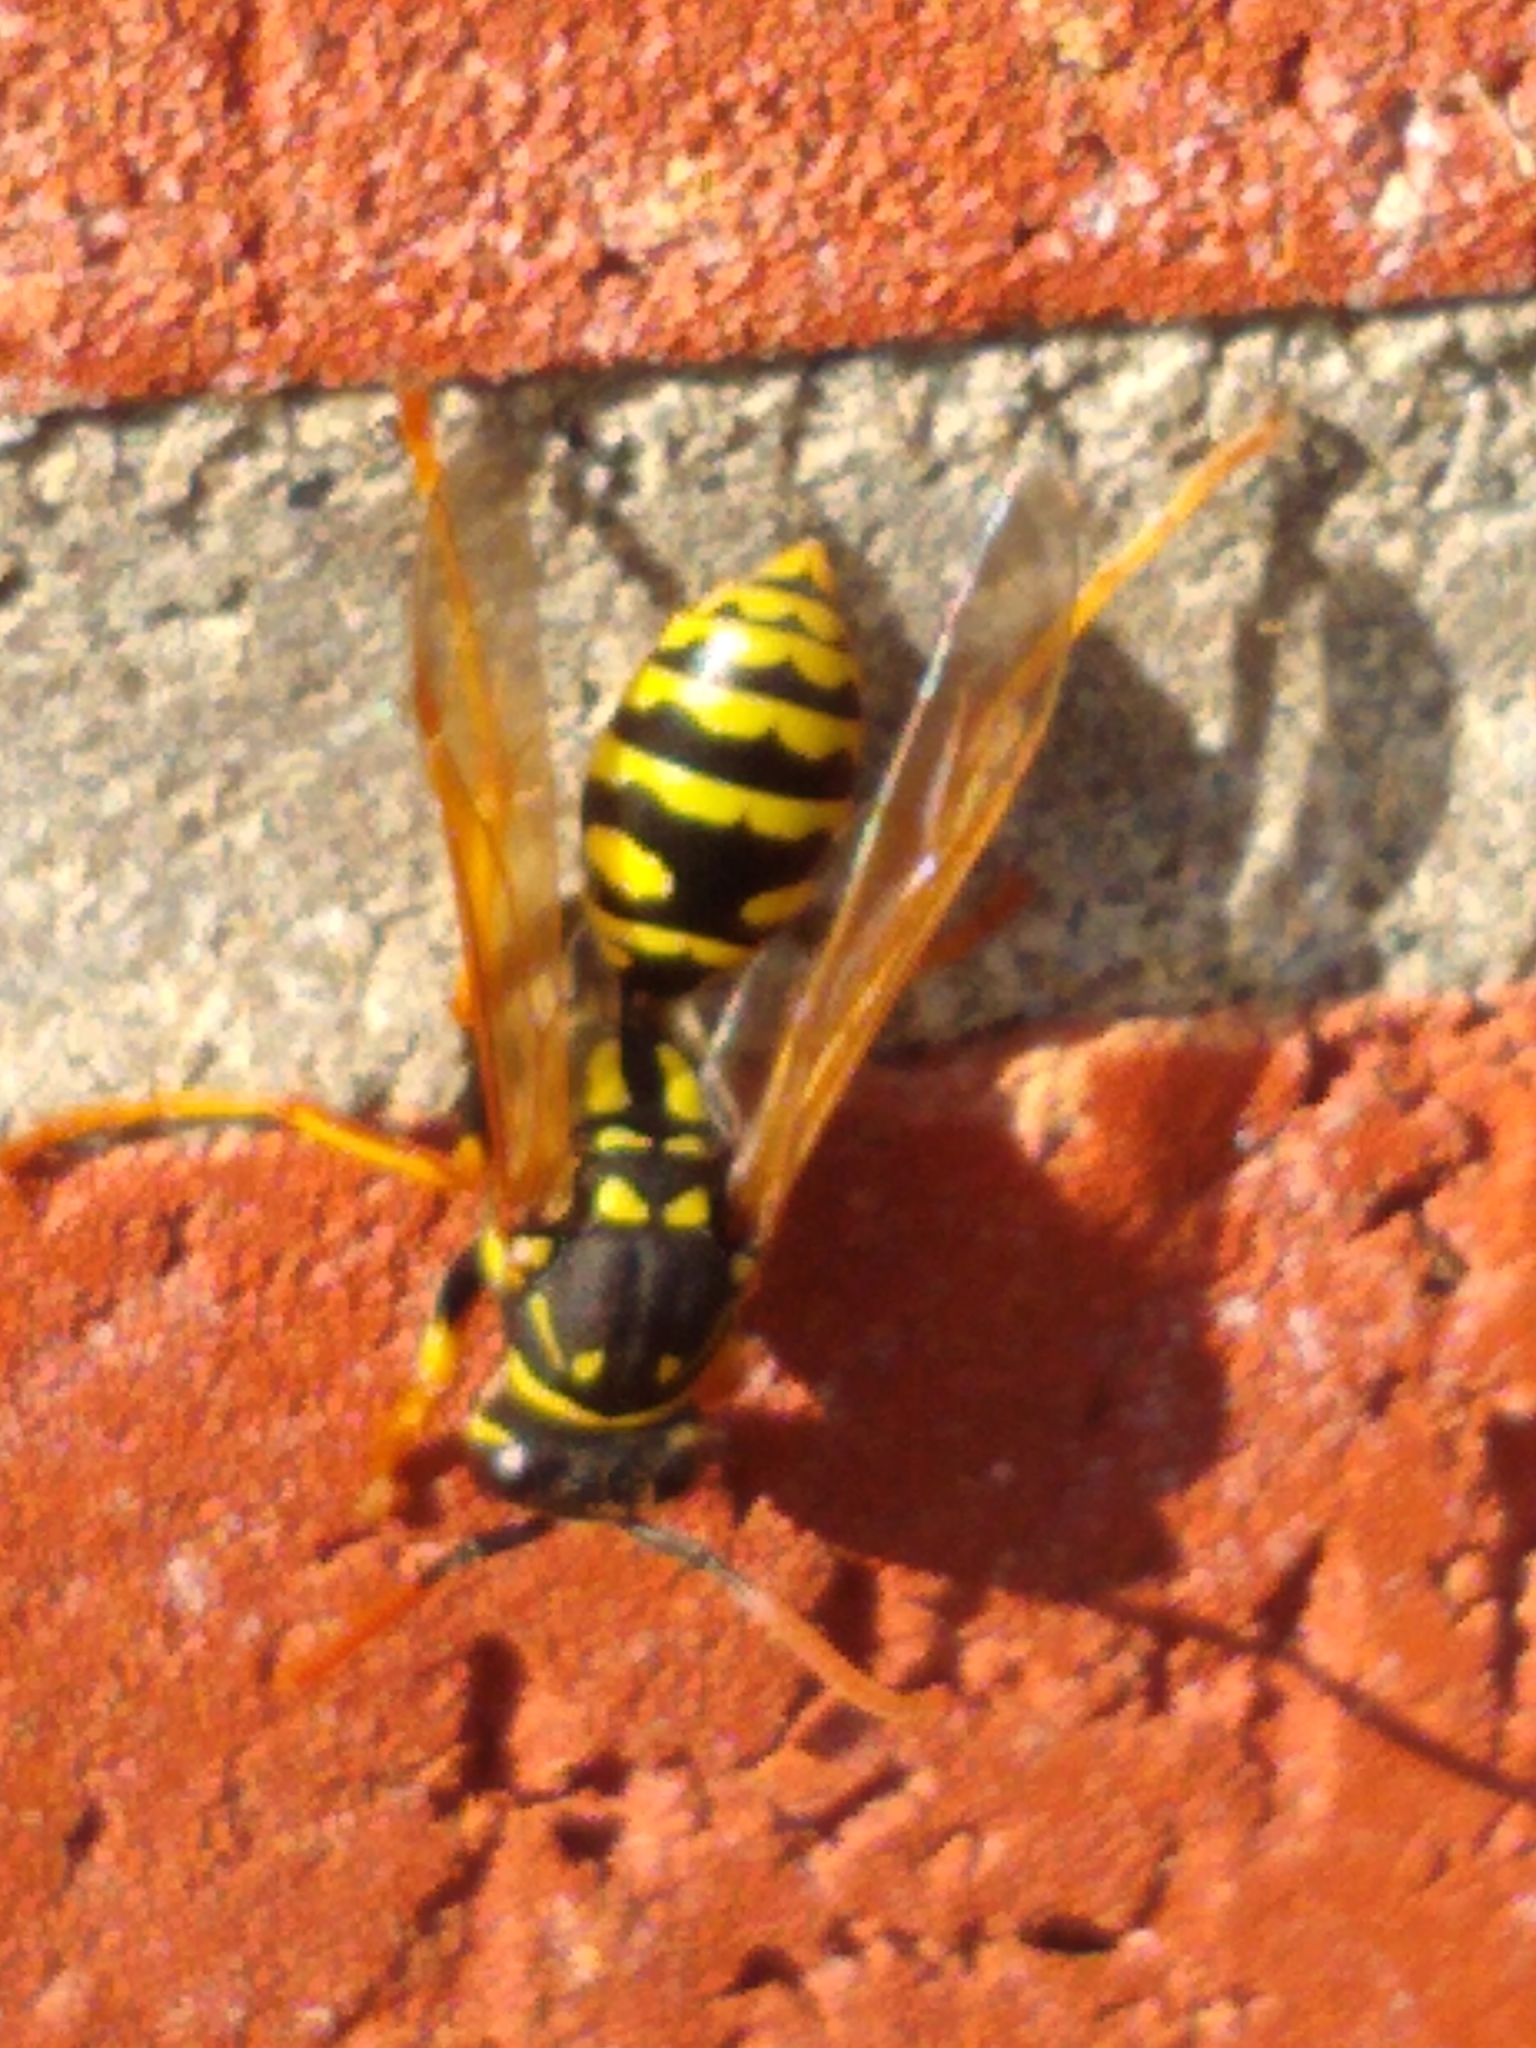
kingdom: Animalia
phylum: Arthropoda
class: Insecta
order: Hymenoptera
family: Eumenidae
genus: Polistes
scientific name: Polistes dominula
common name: Paper wasp
